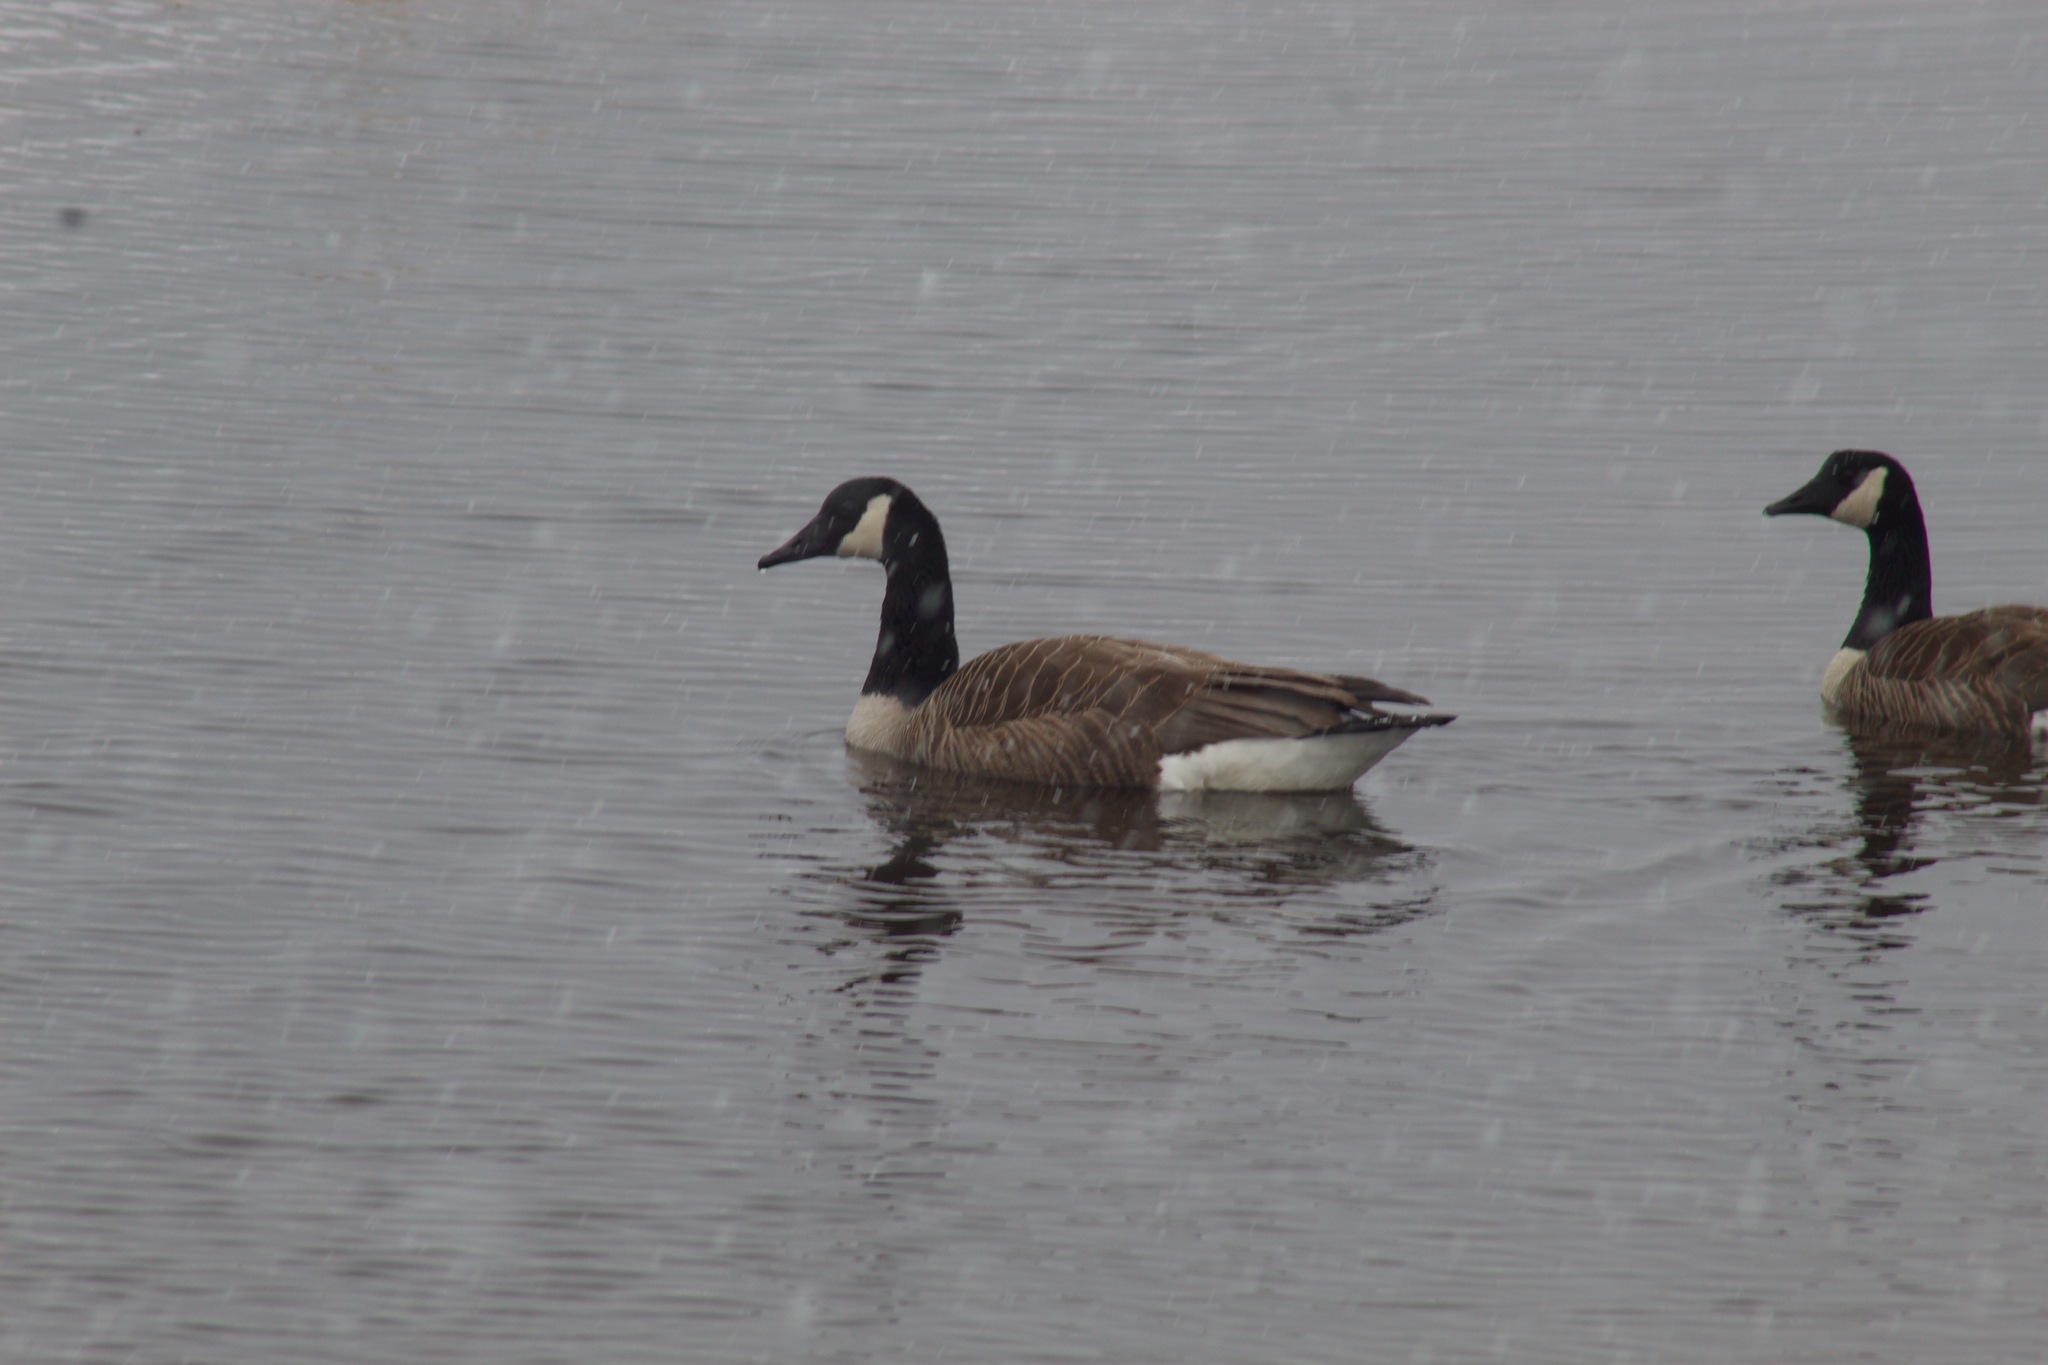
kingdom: Animalia
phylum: Chordata
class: Aves
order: Anseriformes
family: Anatidae
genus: Branta
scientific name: Branta canadensis
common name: Canada goose
